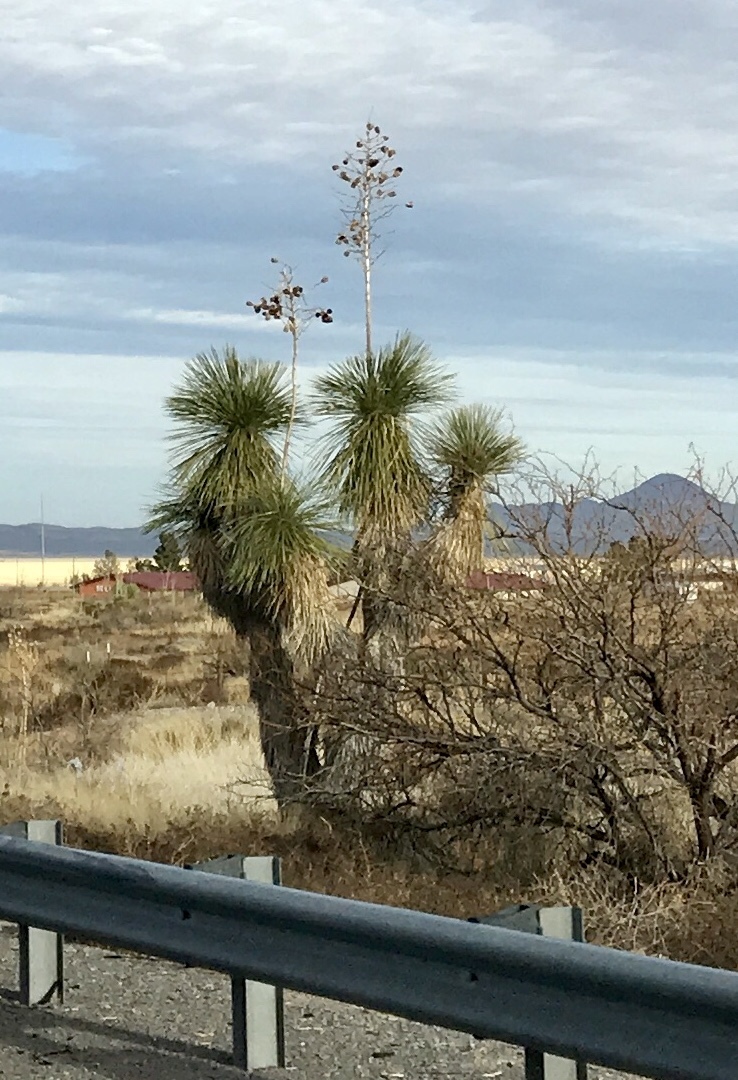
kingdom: Plantae
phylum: Tracheophyta
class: Liliopsida
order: Asparagales
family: Asparagaceae
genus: Yucca
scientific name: Yucca elata
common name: Palmella
